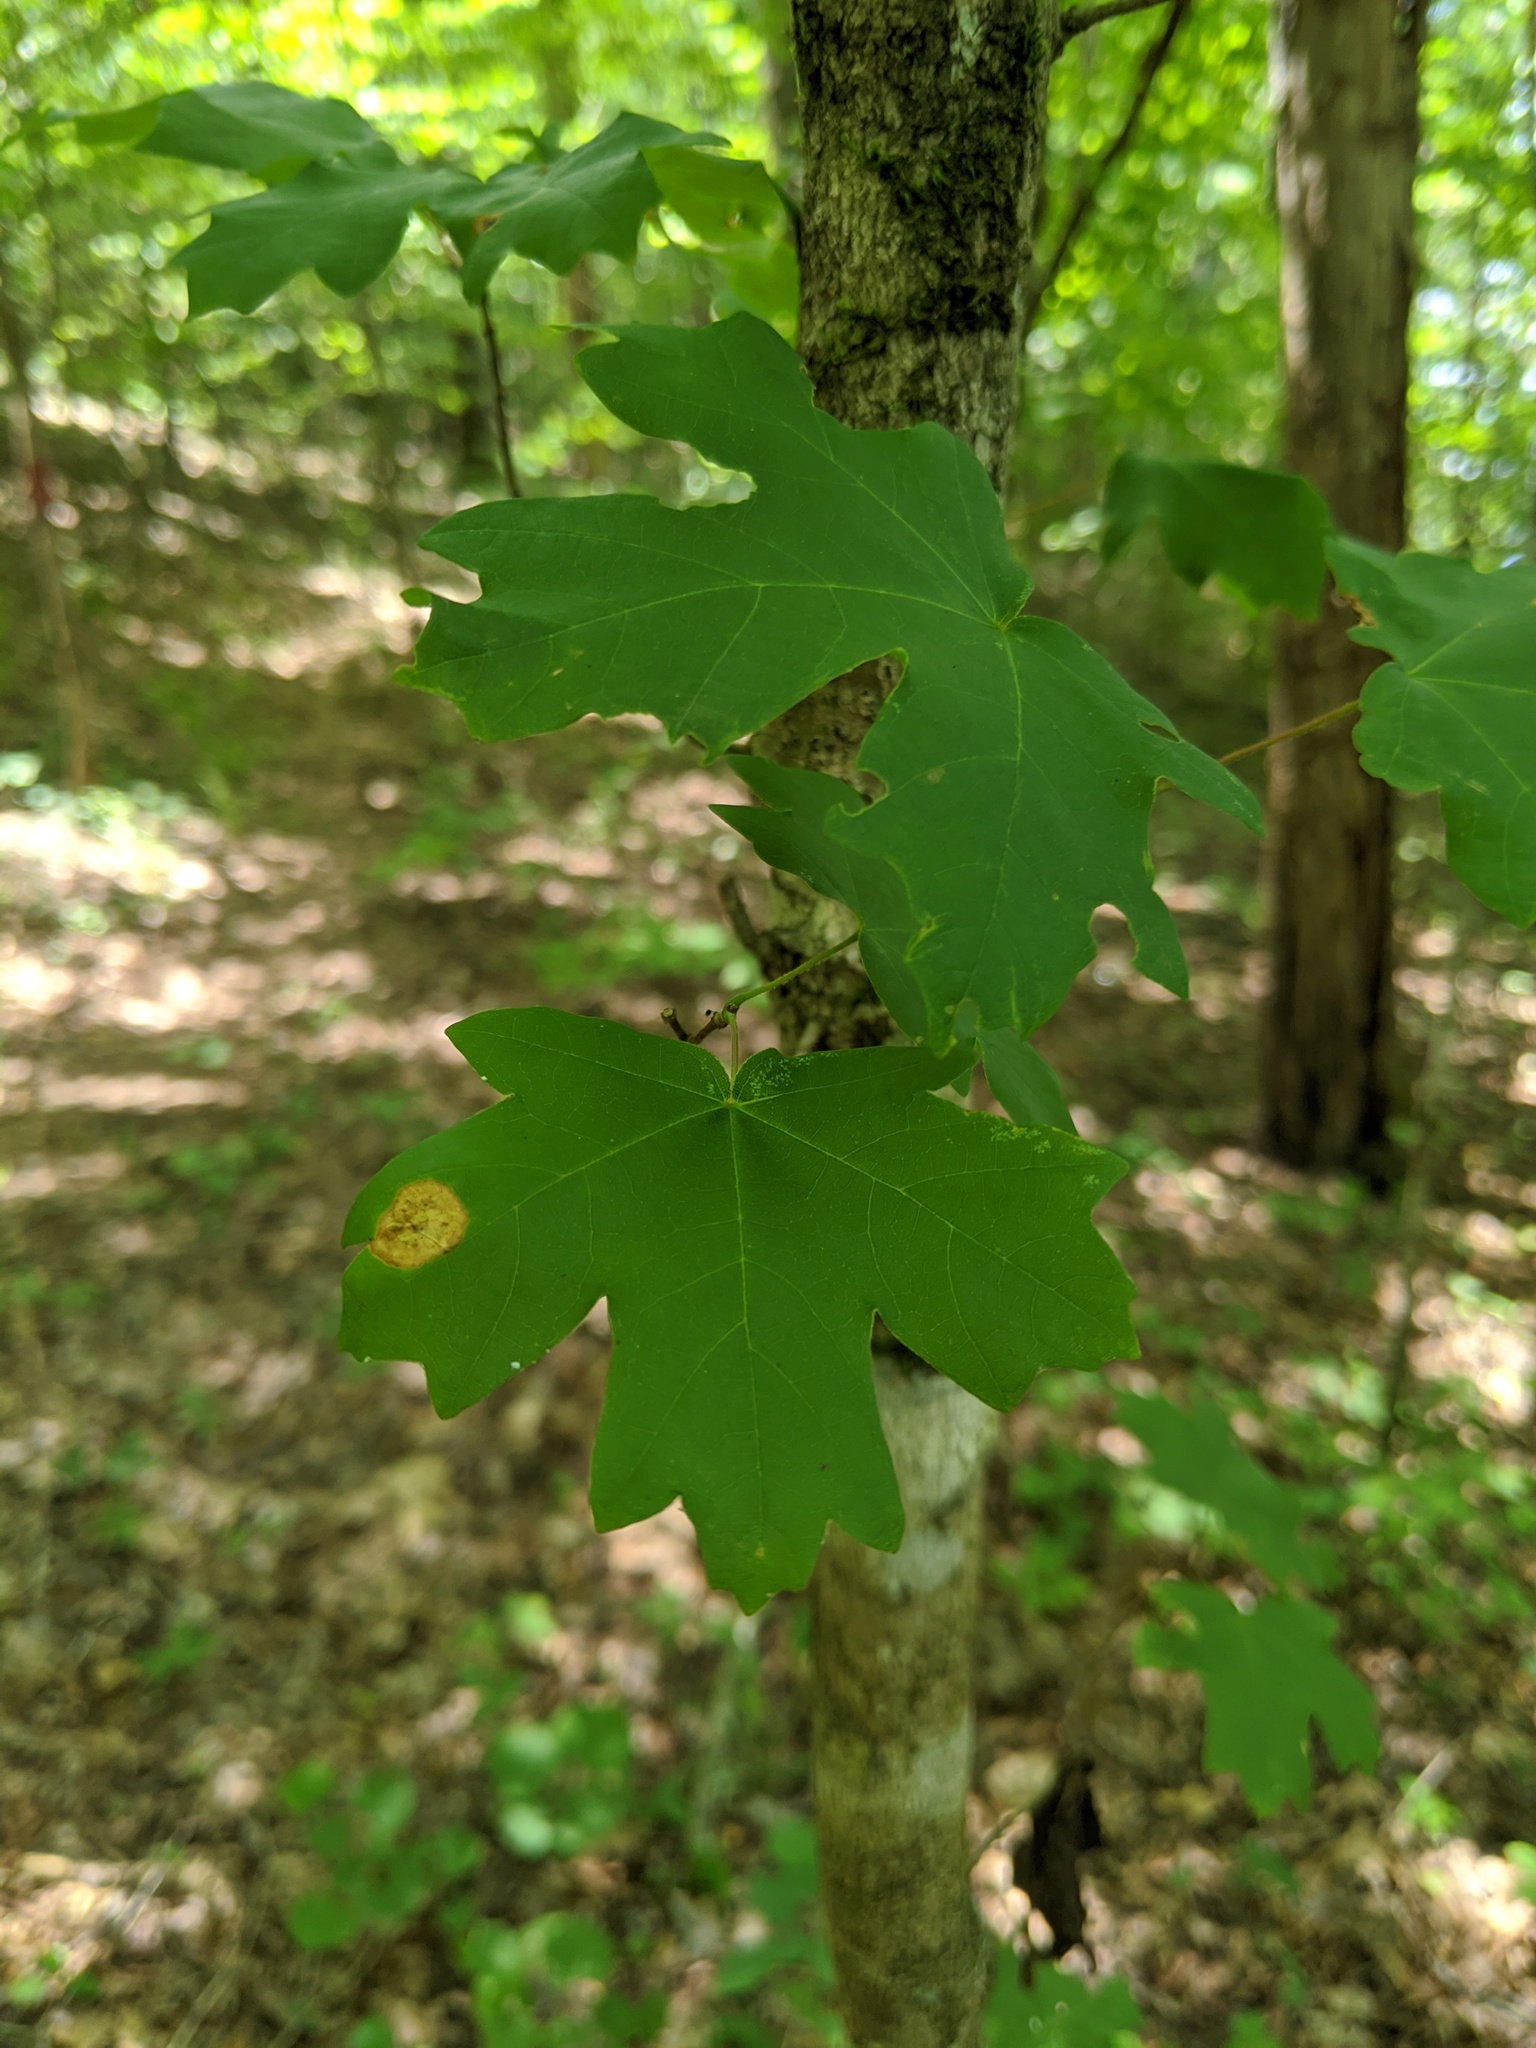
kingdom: Plantae
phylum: Tracheophyta
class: Magnoliopsida
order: Sapindales
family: Sapindaceae
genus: Acer
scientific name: Acer floridanum
